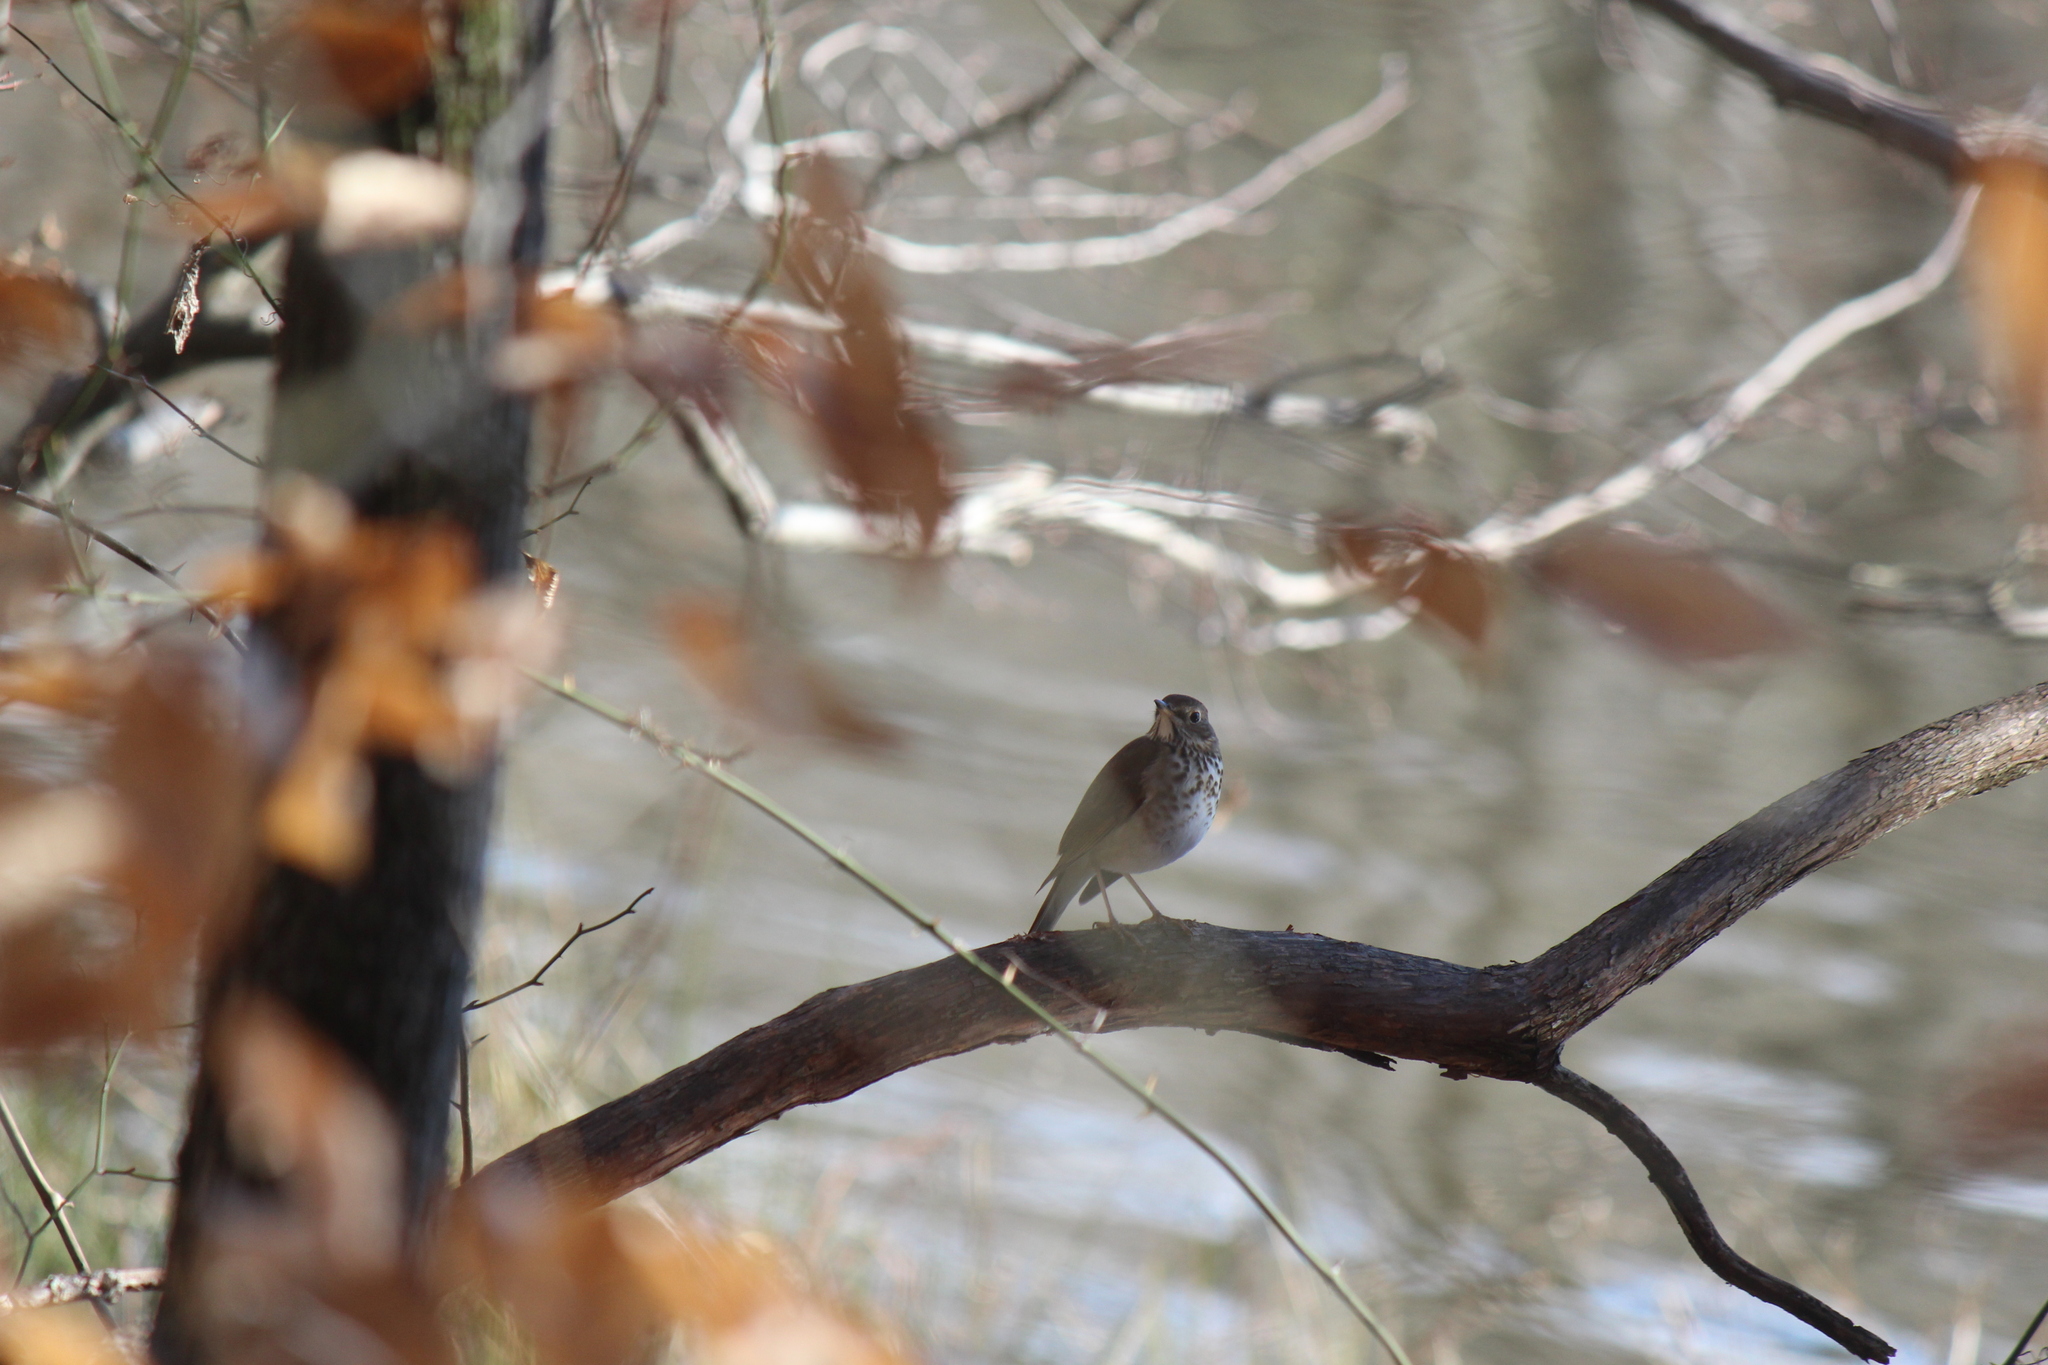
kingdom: Animalia
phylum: Chordata
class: Aves
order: Passeriformes
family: Turdidae
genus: Catharus
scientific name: Catharus guttatus
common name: Hermit thrush
